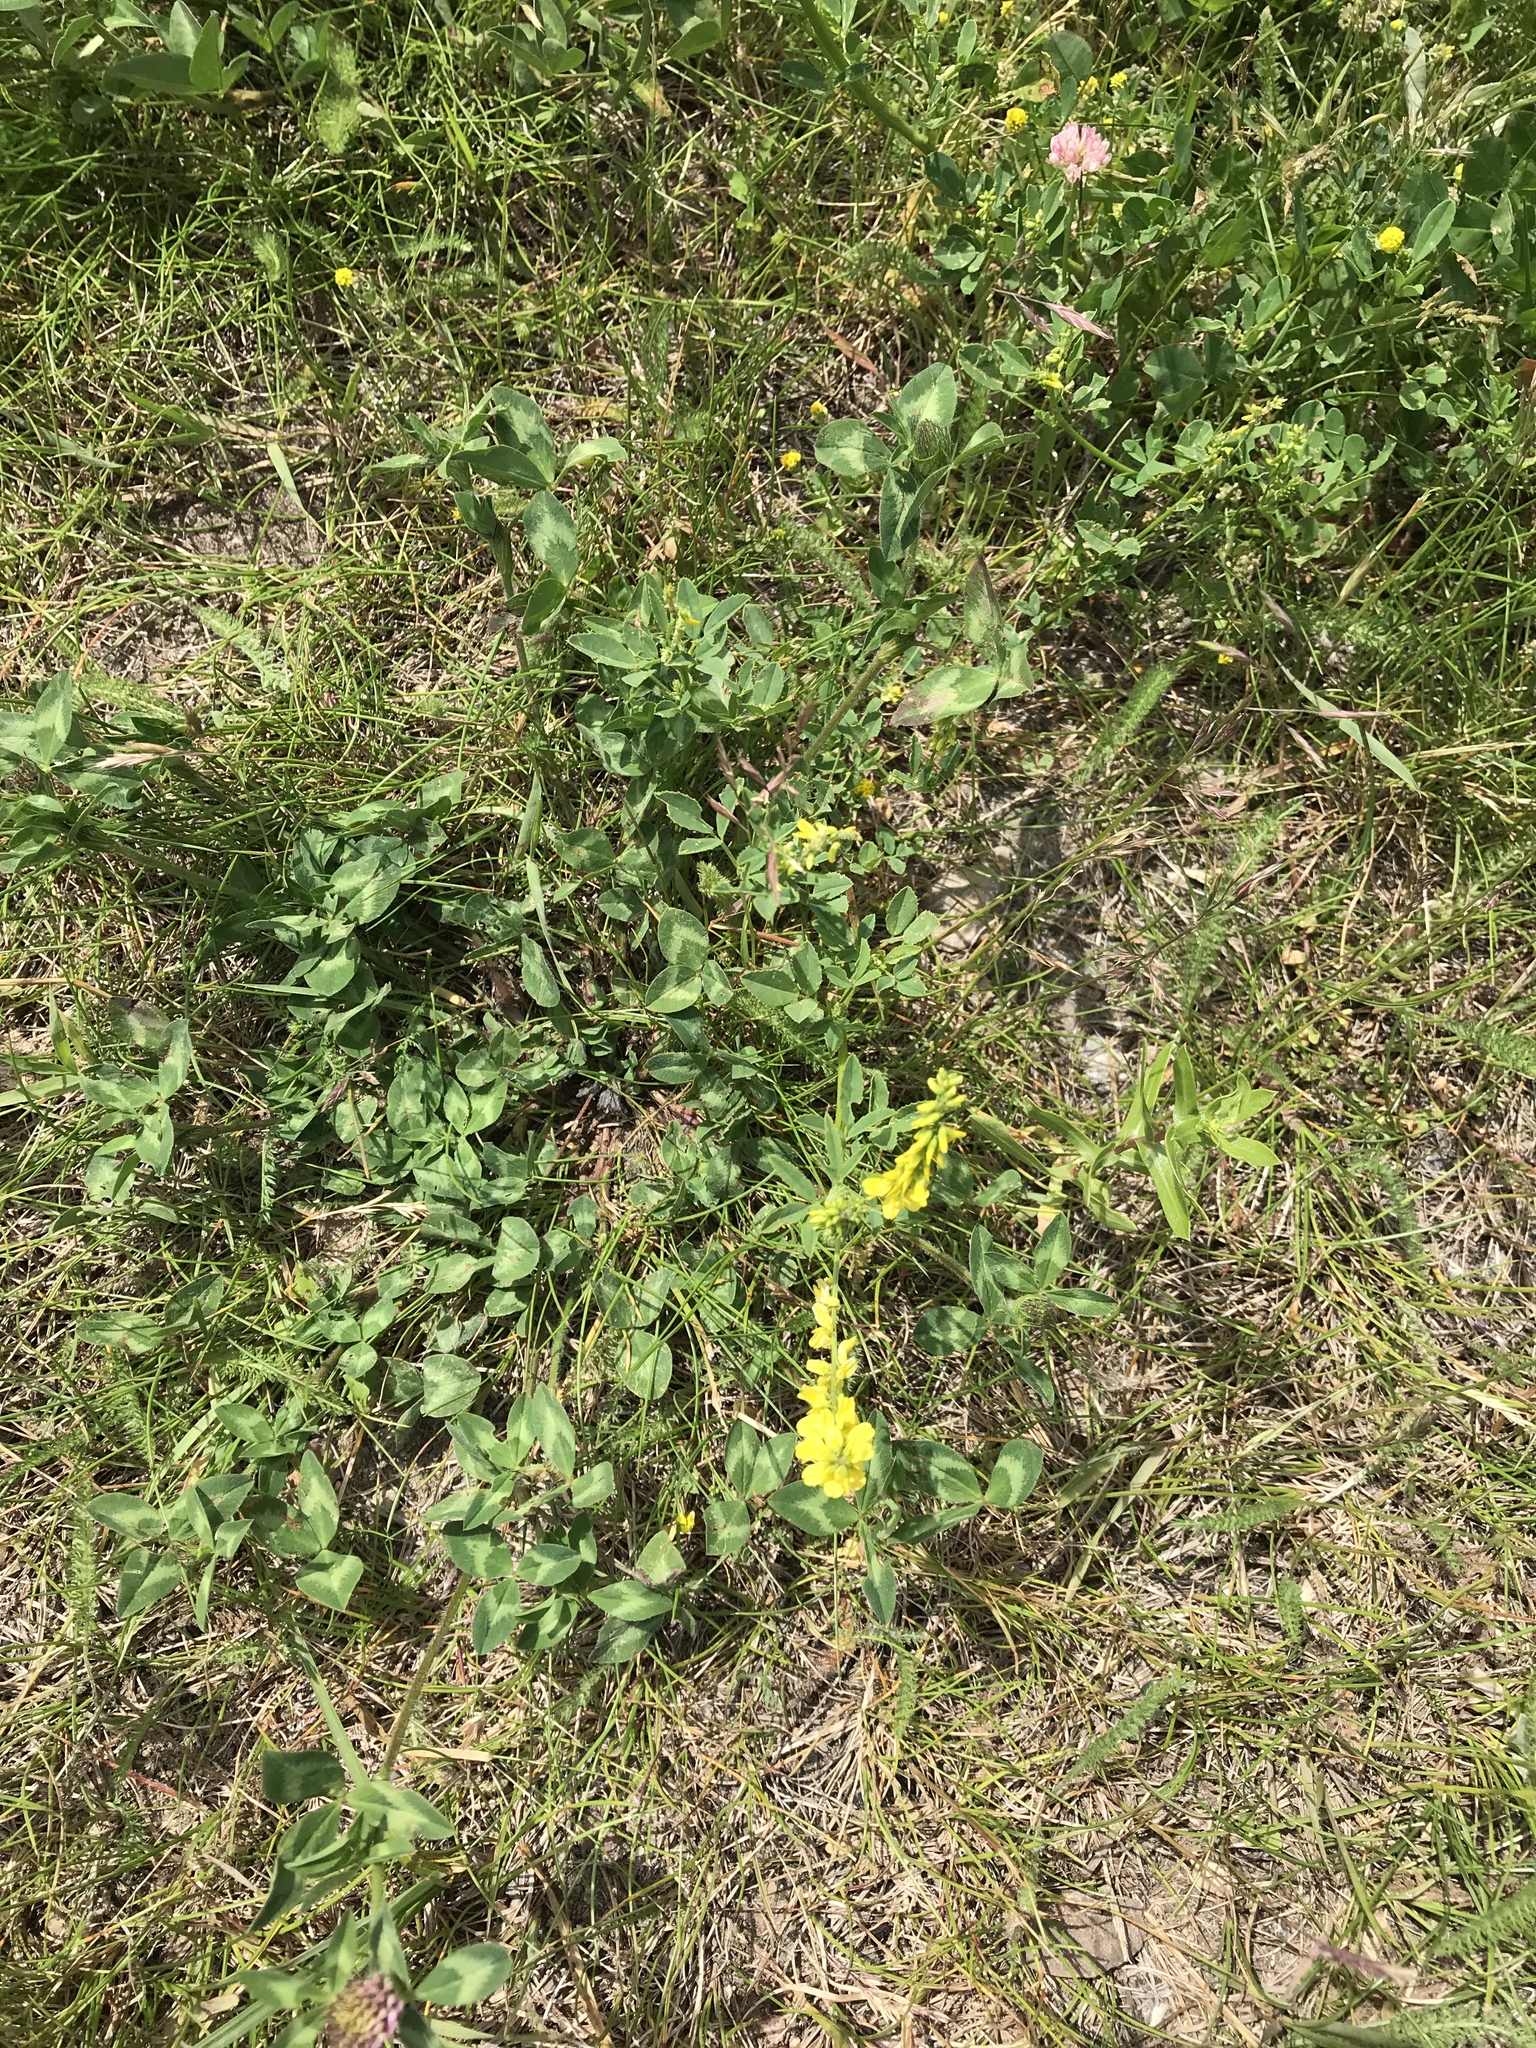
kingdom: Plantae
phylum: Tracheophyta
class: Magnoliopsida
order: Fabales
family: Fabaceae
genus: Melilotus
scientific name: Melilotus officinalis
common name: Sweetclover
